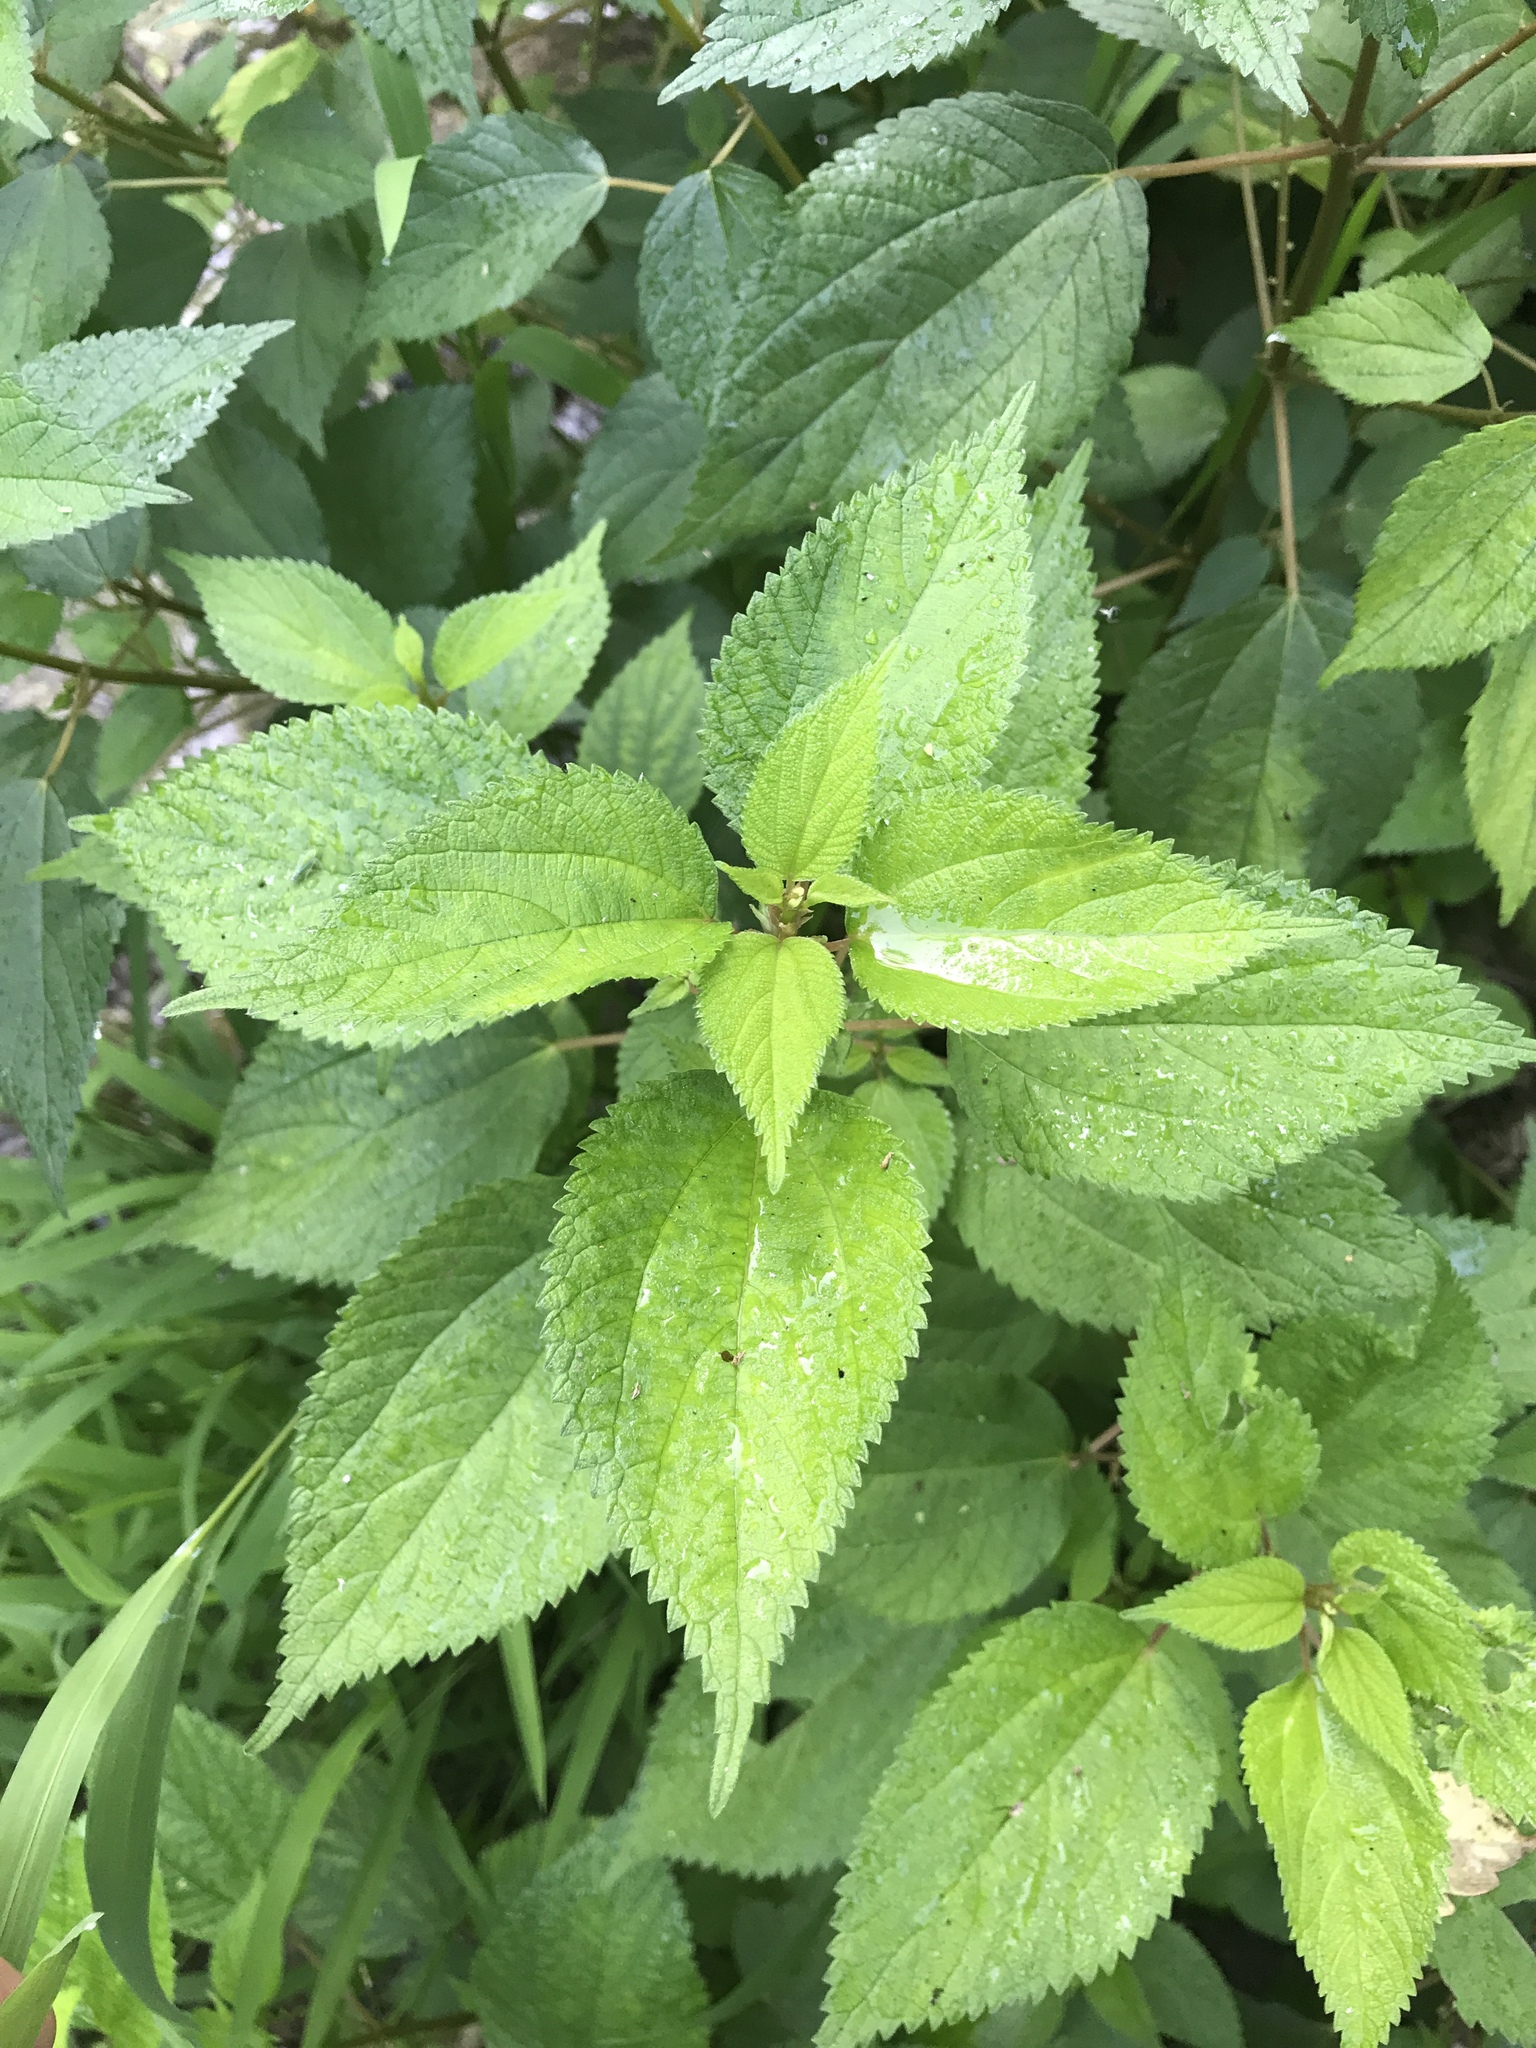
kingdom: Plantae
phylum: Tracheophyta
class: Magnoliopsida
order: Rosales
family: Urticaceae
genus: Boehmeria
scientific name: Boehmeria cylindrica
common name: Bog-hemp
